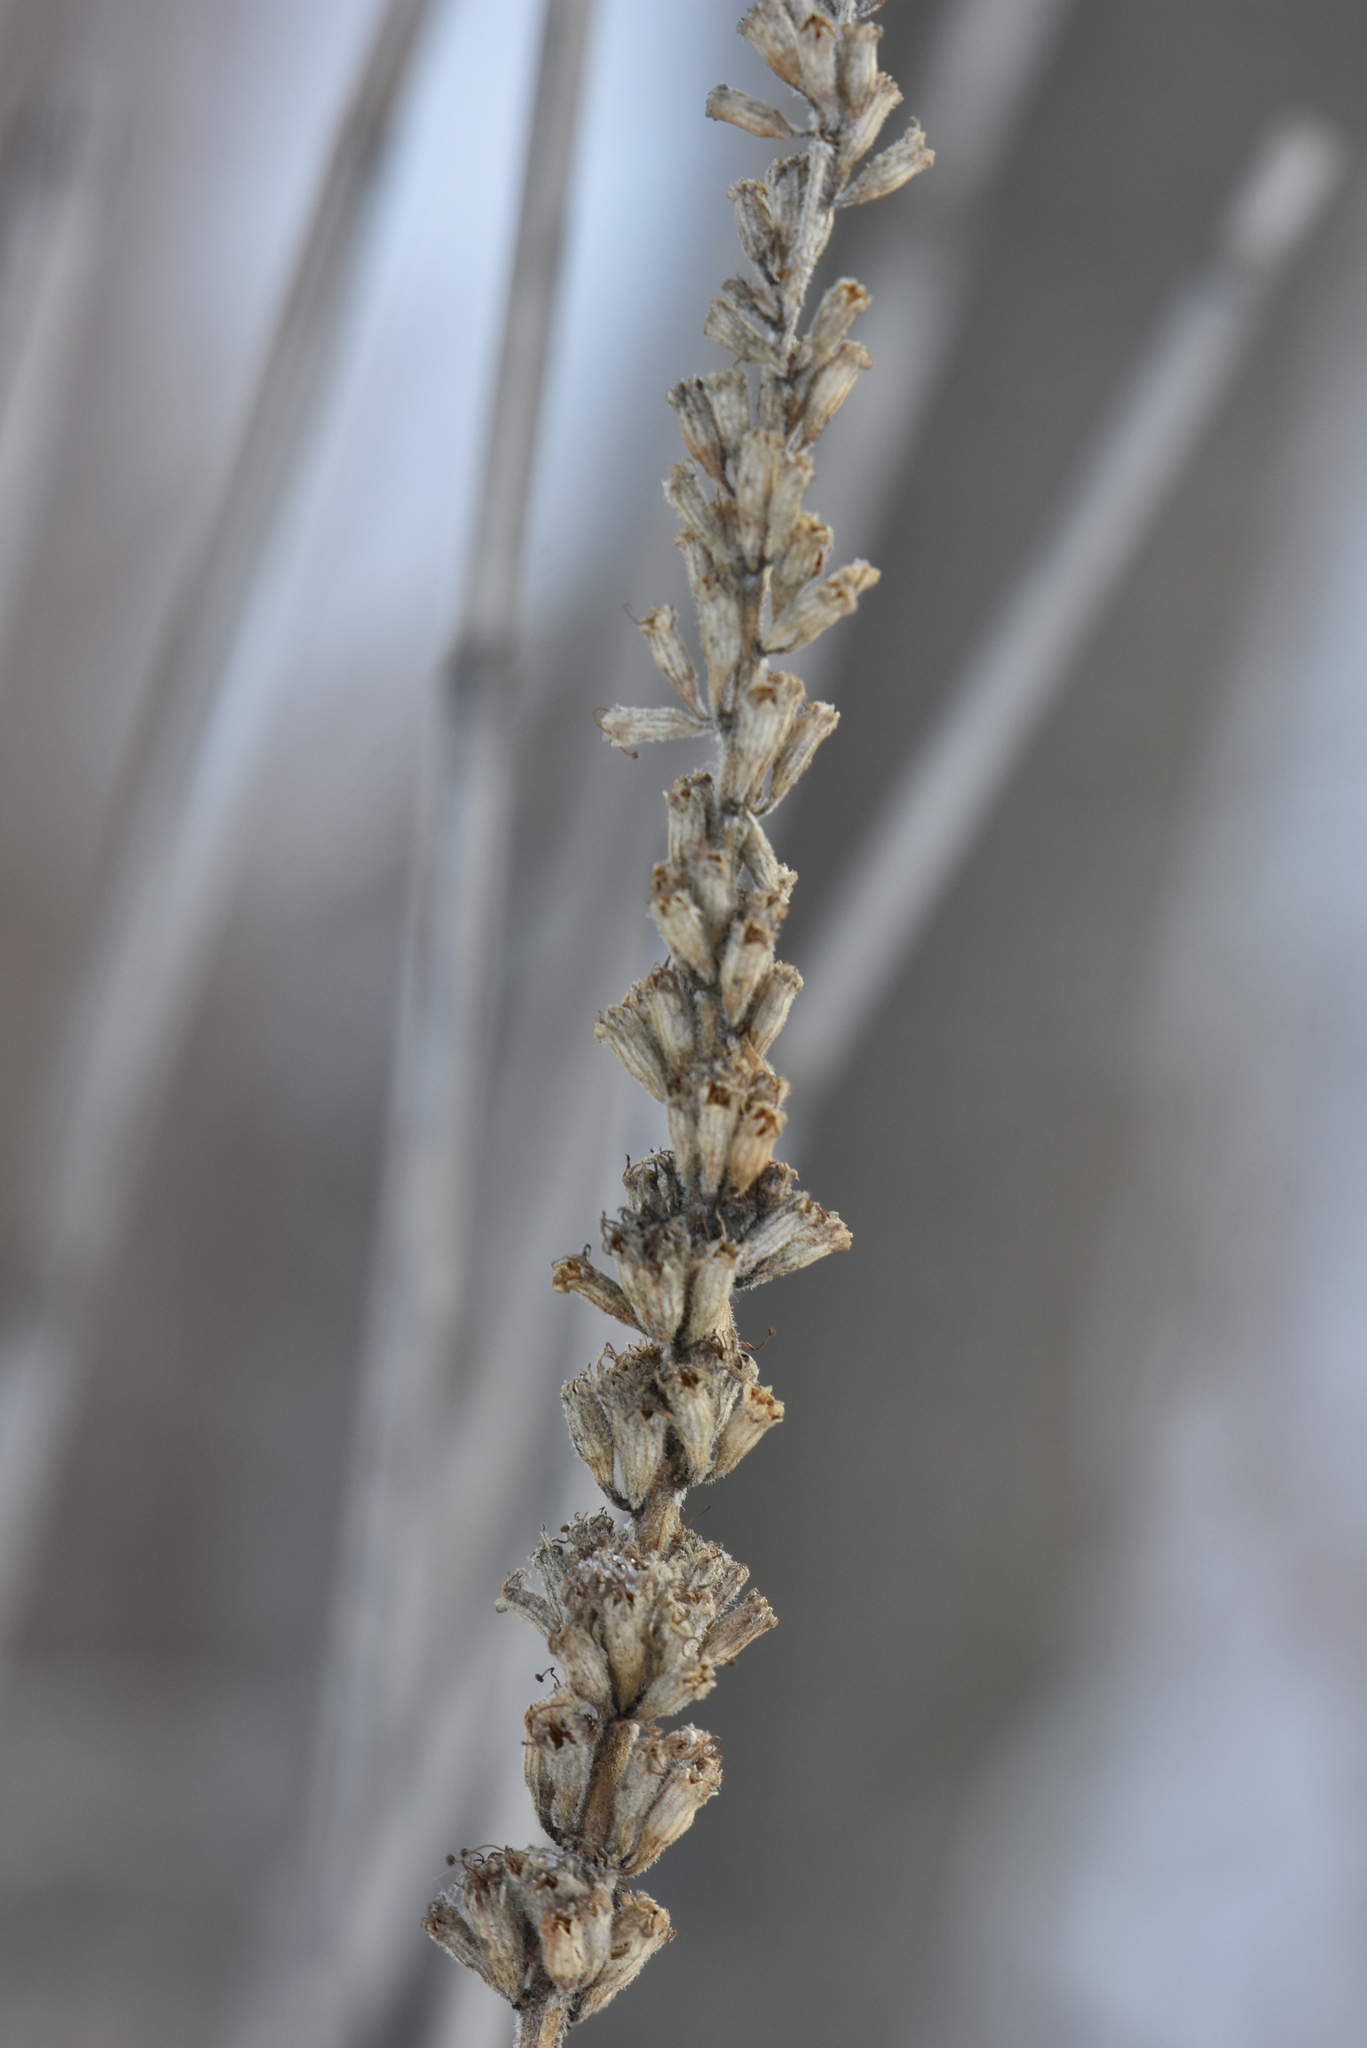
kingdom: Plantae
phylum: Tracheophyta
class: Magnoliopsida
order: Myrtales
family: Lythraceae
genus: Lythrum
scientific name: Lythrum salicaria
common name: Purple loosestrife
